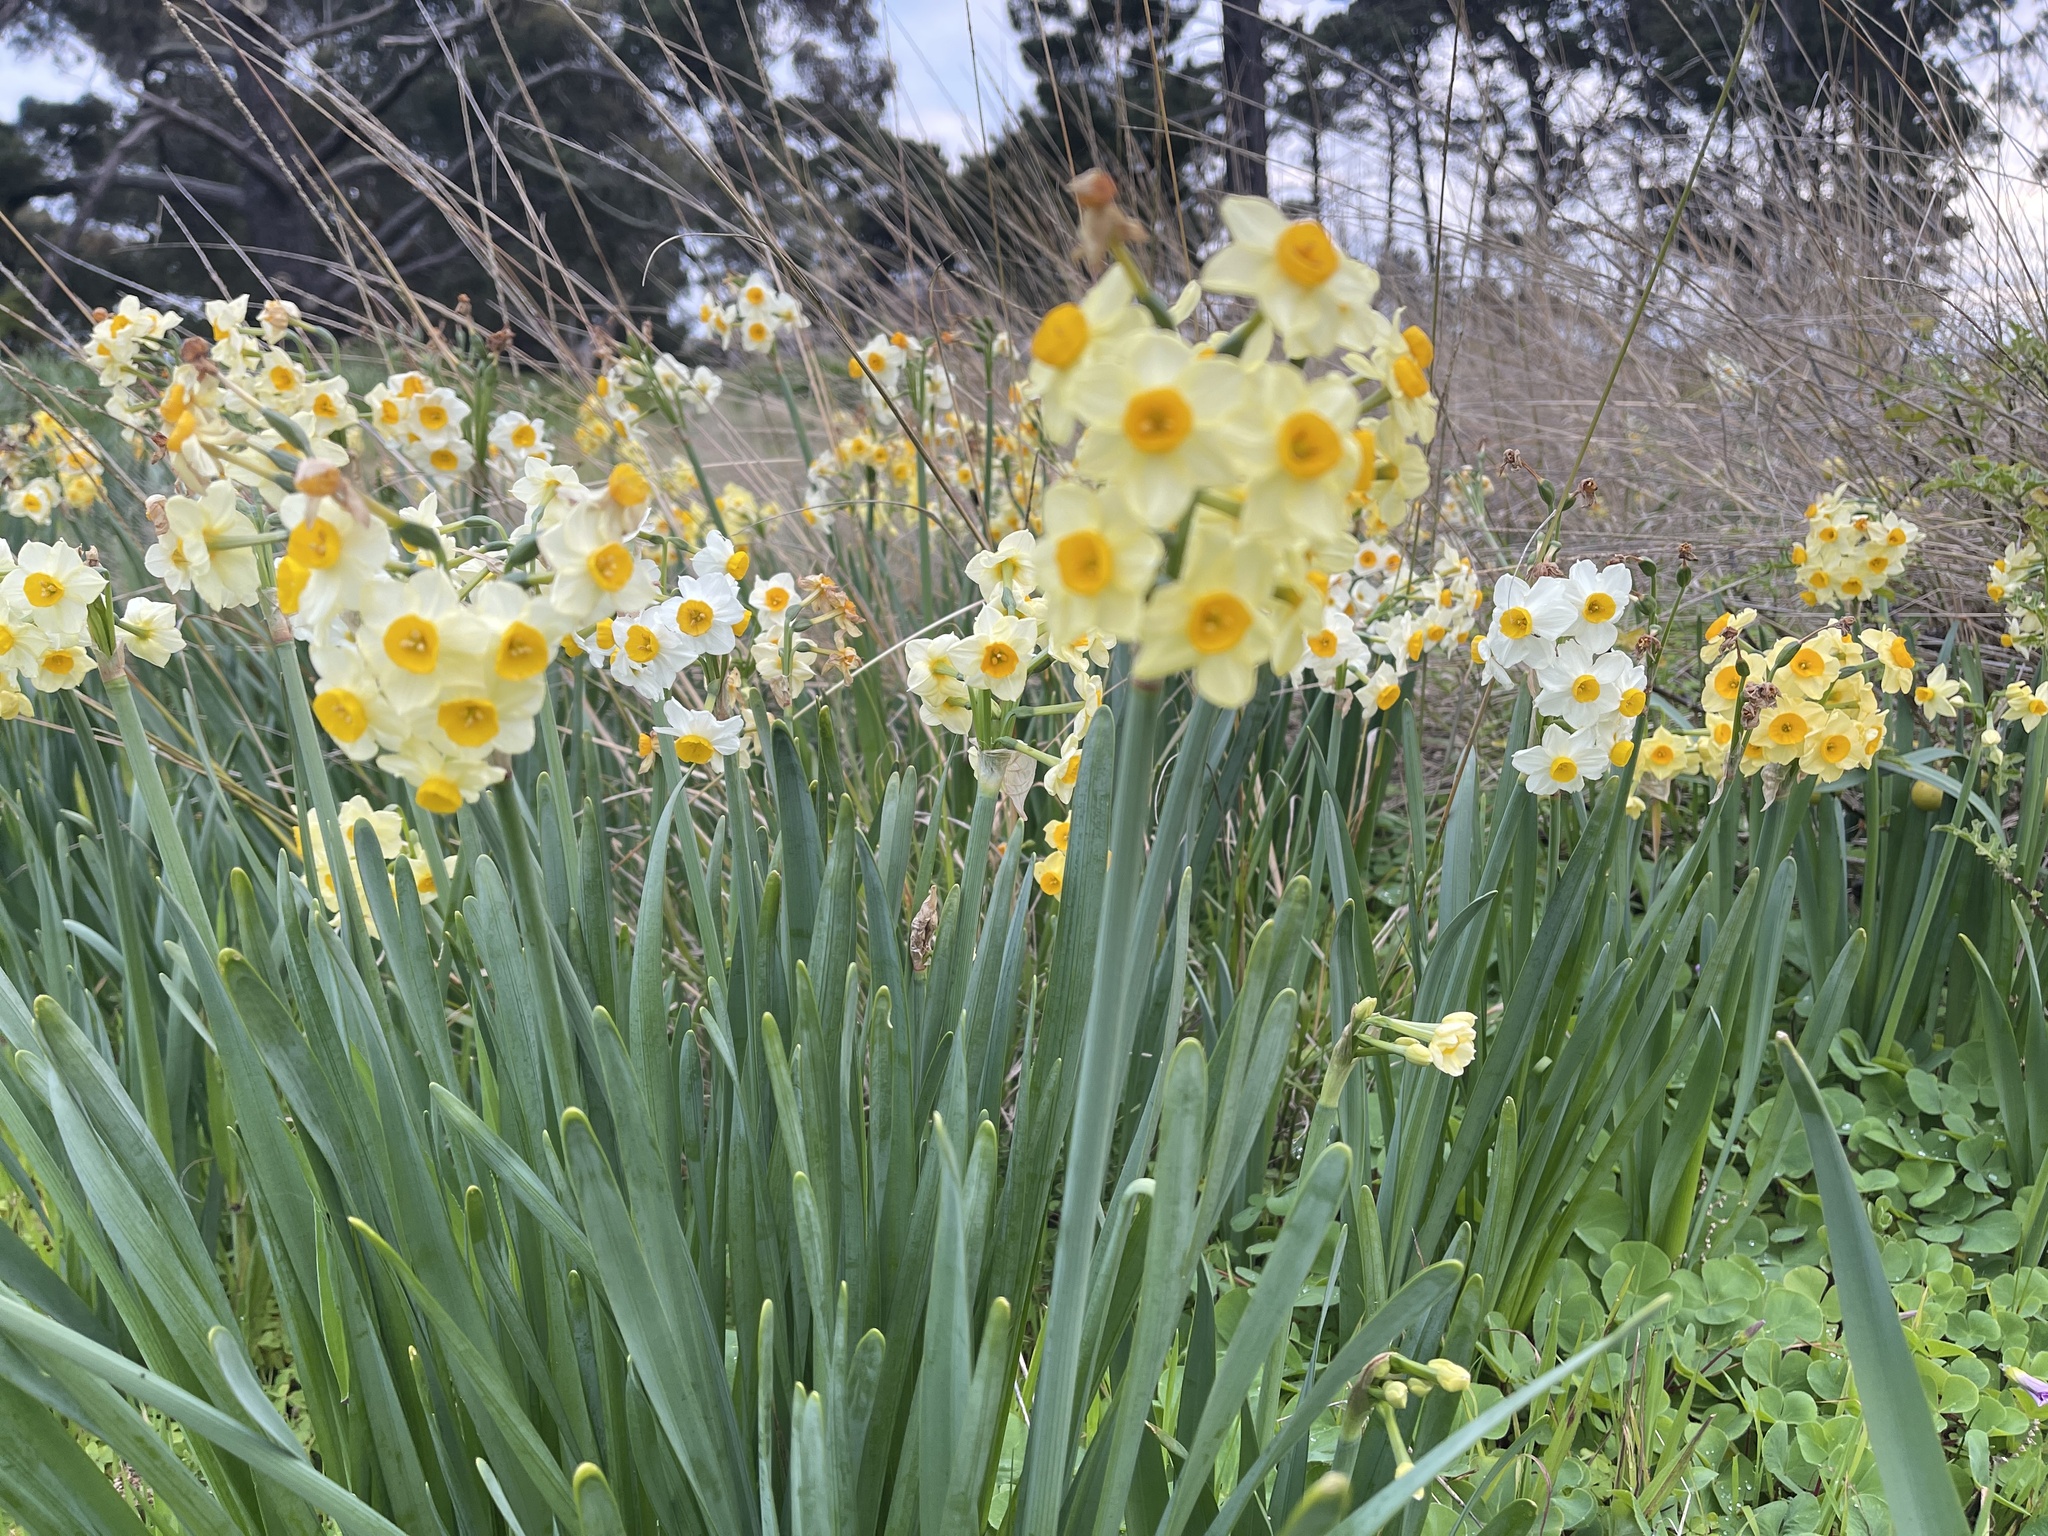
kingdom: Plantae
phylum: Tracheophyta
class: Liliopsida
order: Asparagales
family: Amaryllidaceae
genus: Narcissus
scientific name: Narcissus tazetta
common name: Bunch-flowered daffodil
